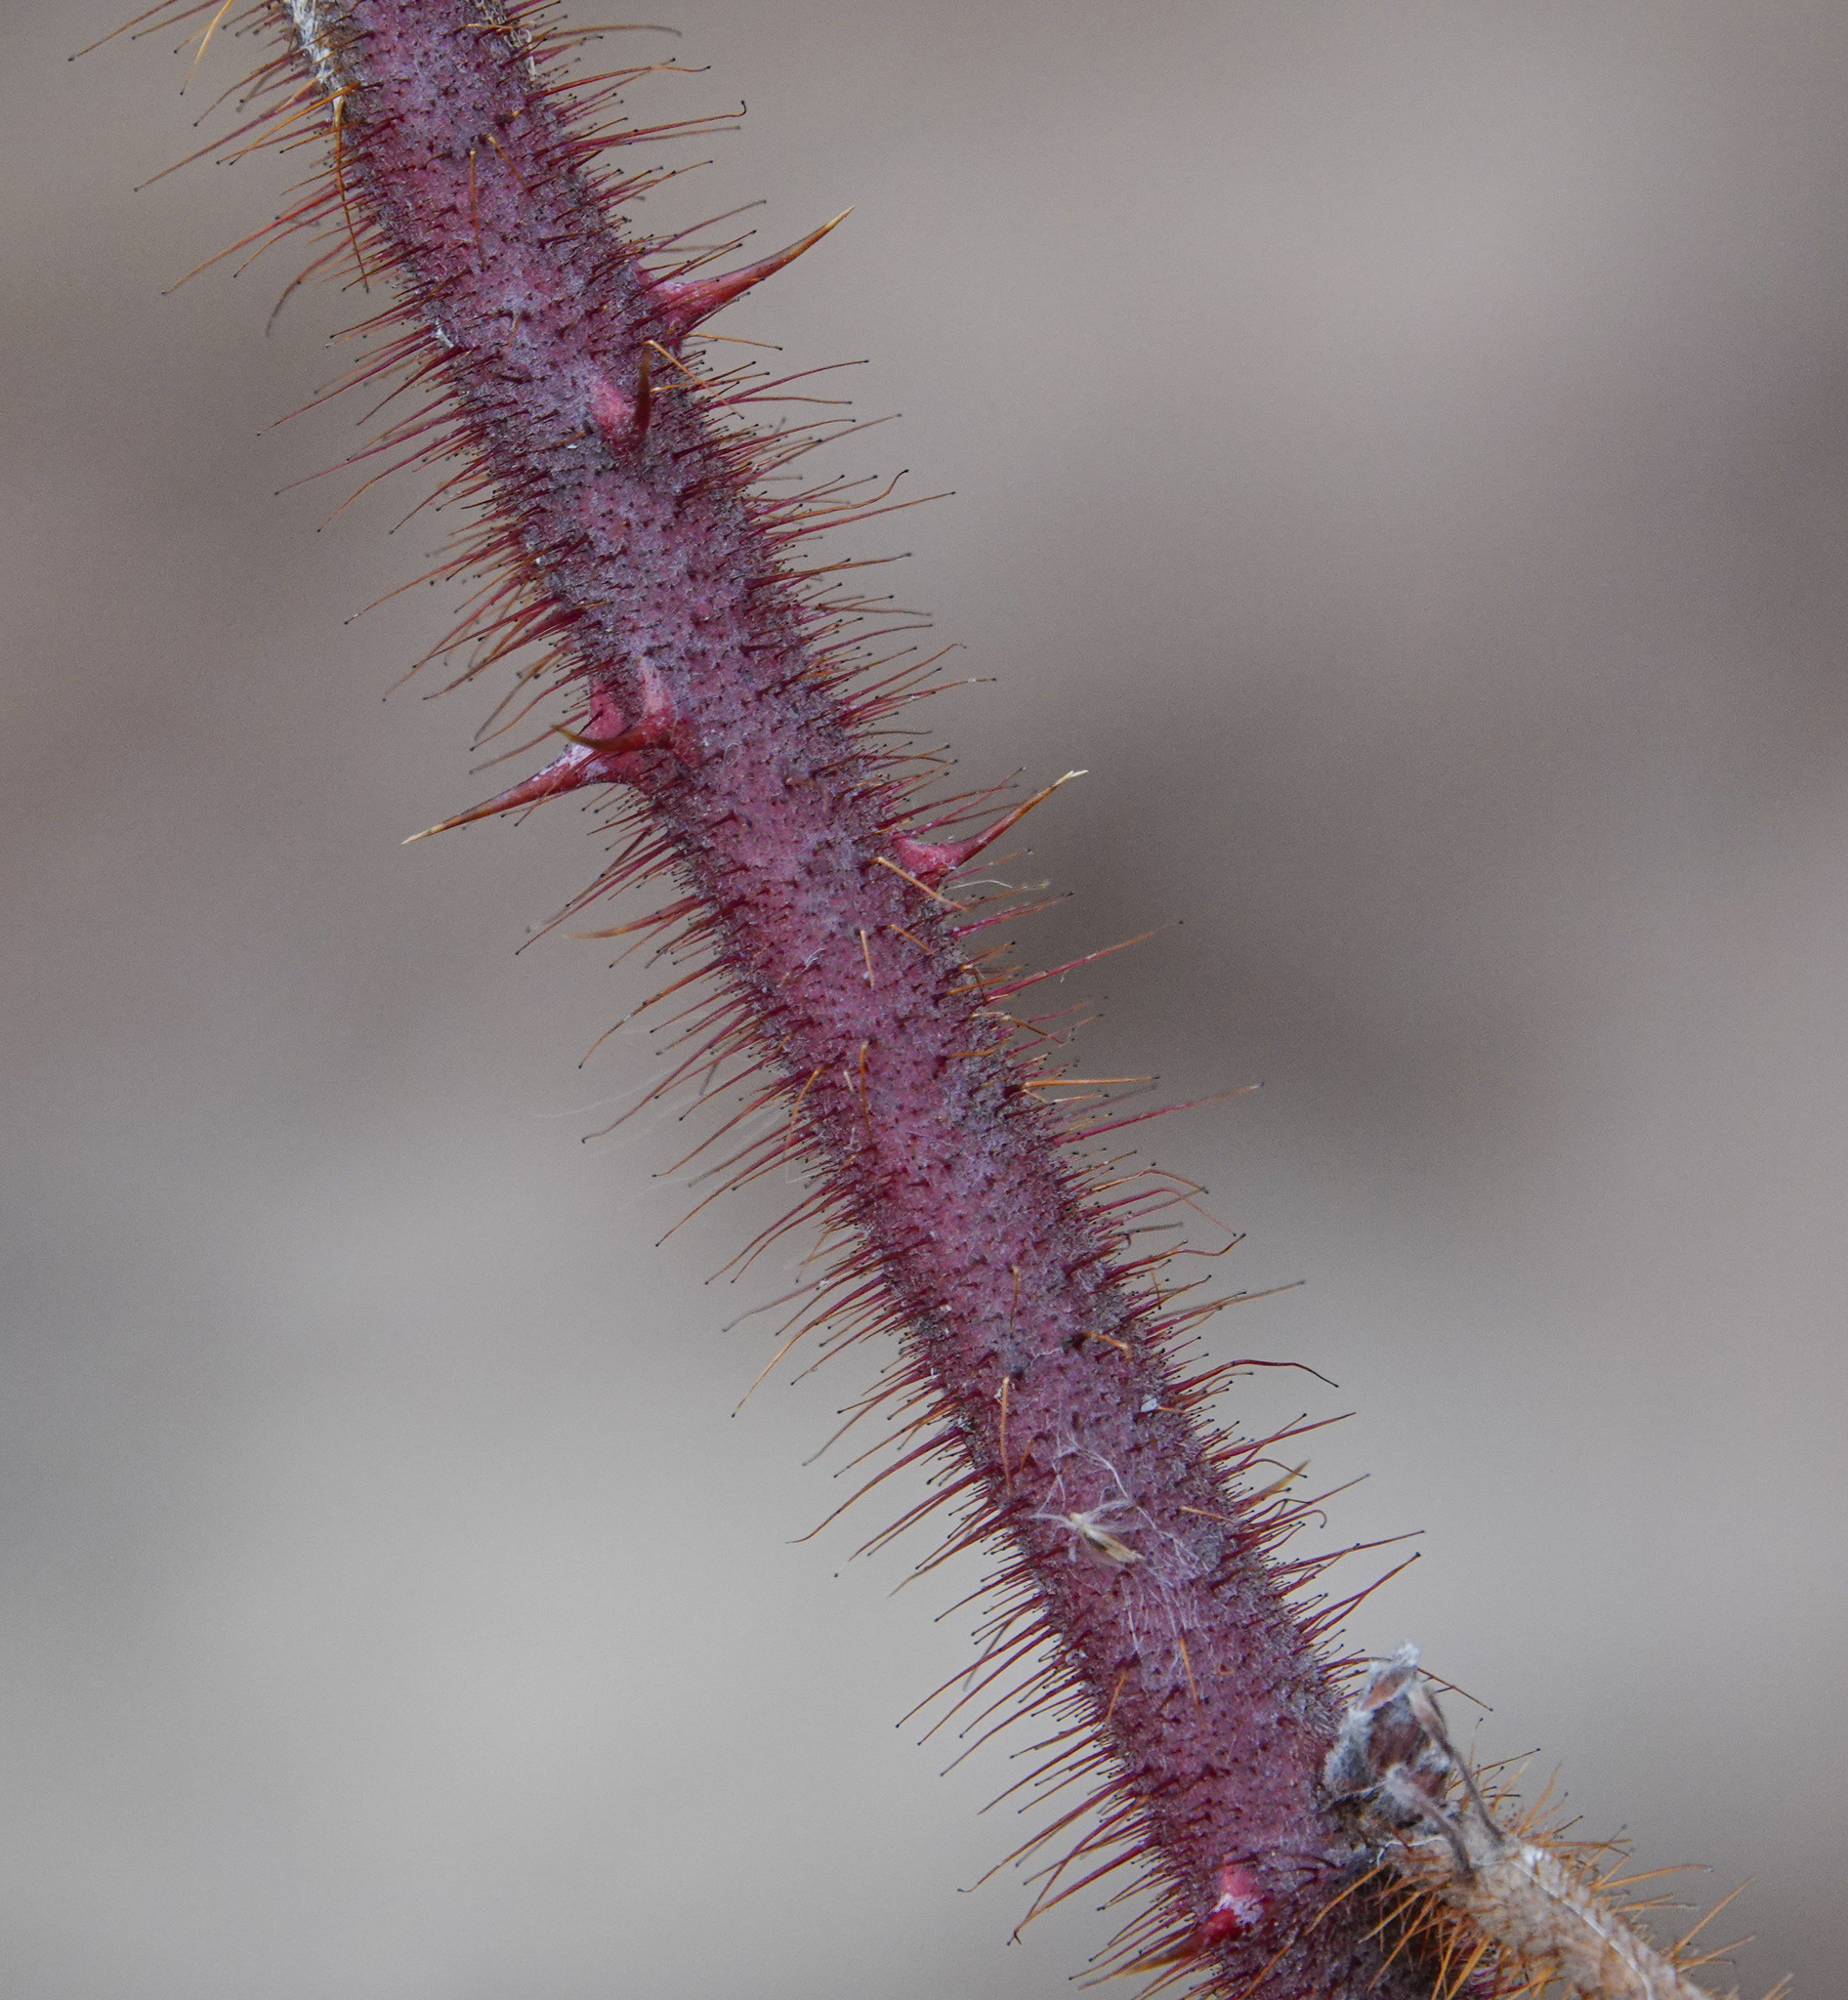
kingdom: Plantae
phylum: Tracheophyta
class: Magnoliopsida
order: Rosales
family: Rosaceae
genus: Rubus
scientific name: Rubus phoenicolasius
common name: Japanese wineberry
